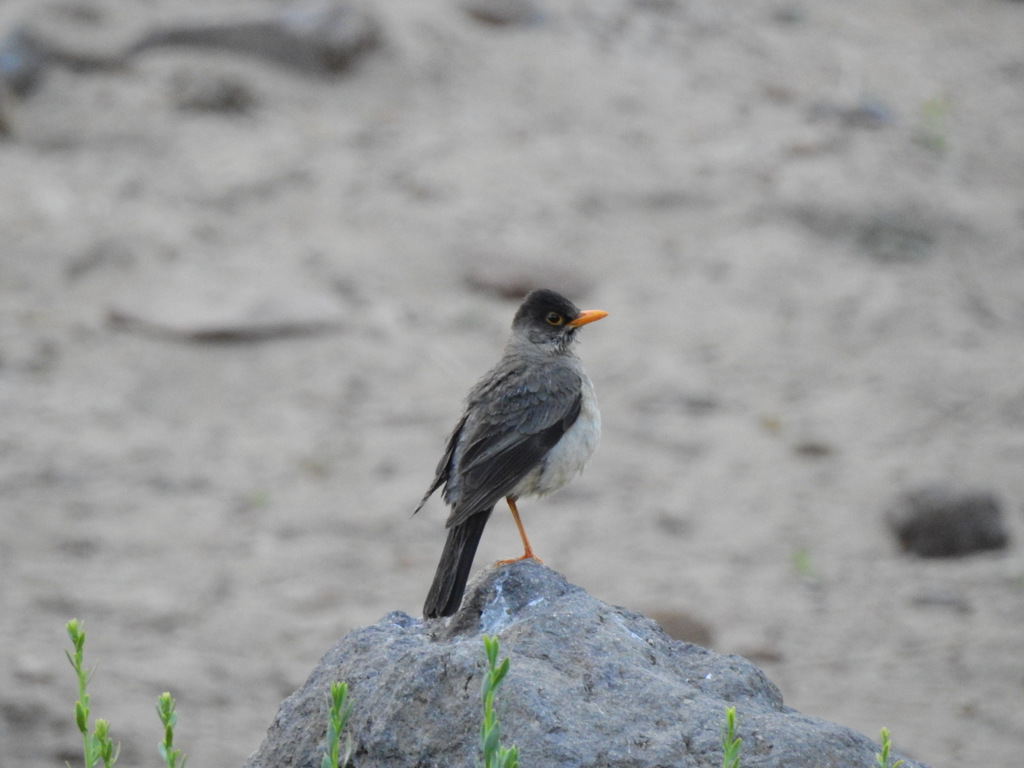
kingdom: Animalia
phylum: Chordata
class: Aves
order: Passeriformes
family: Turdidae
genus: Turdus
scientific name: Turdus falcklandii
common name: Austral thrush
